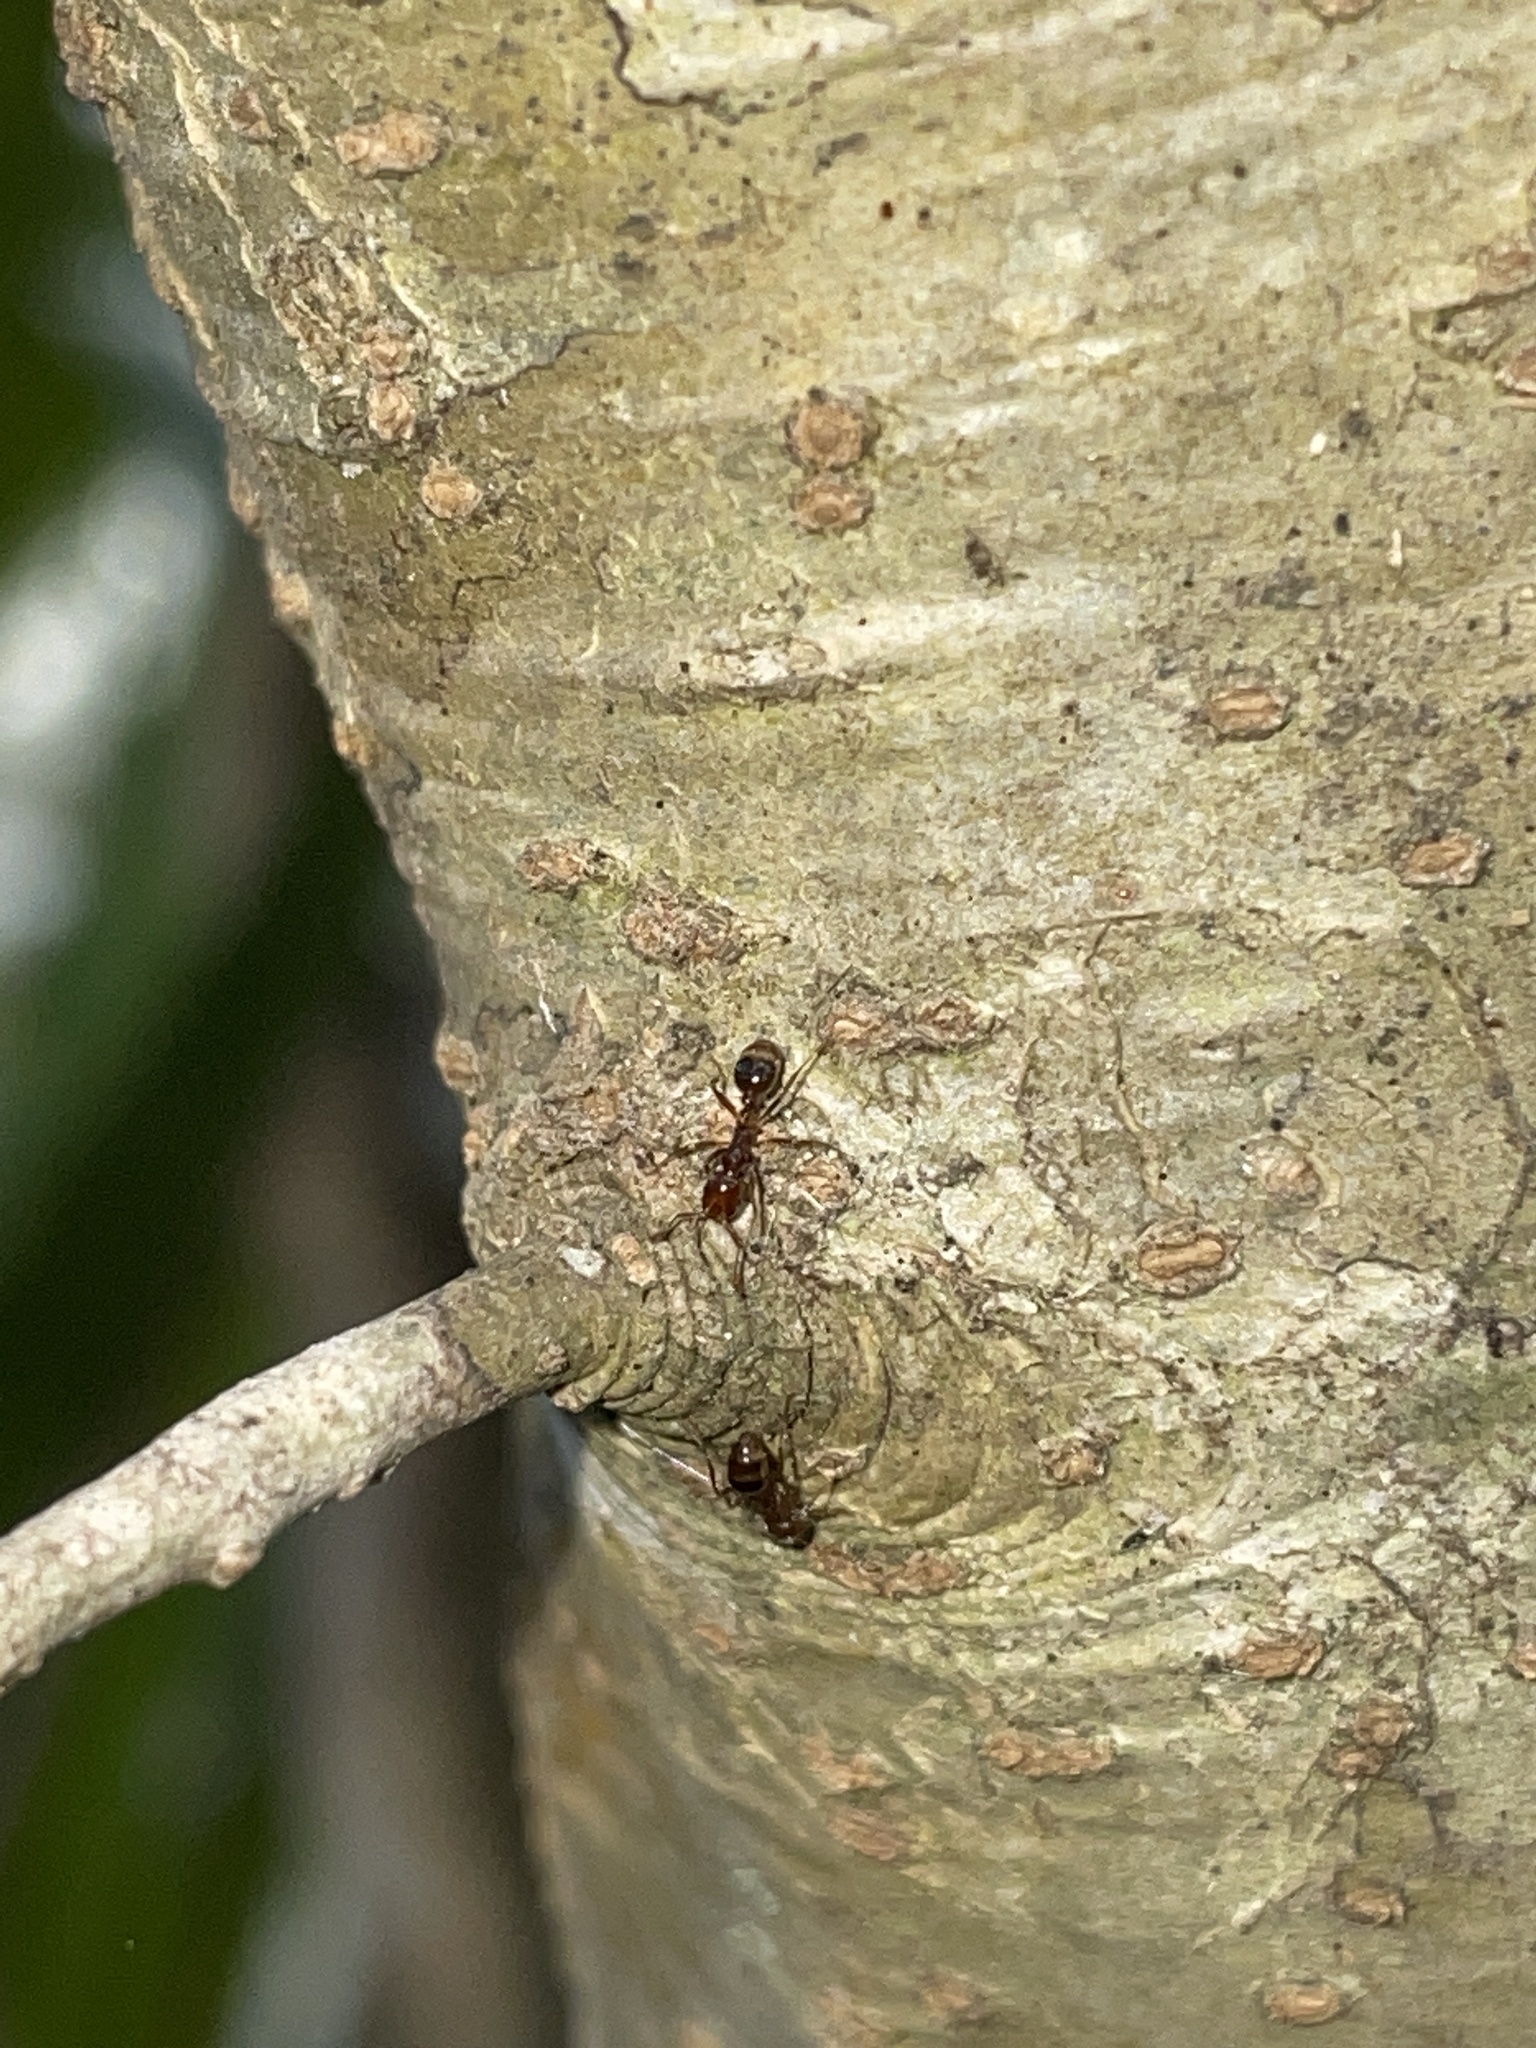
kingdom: Animalia
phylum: Arthropoda
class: Insecta
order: Hymenoptera
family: Formicidae
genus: Solenopsis
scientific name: Solenopsis invicta
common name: Red imported fire ant
